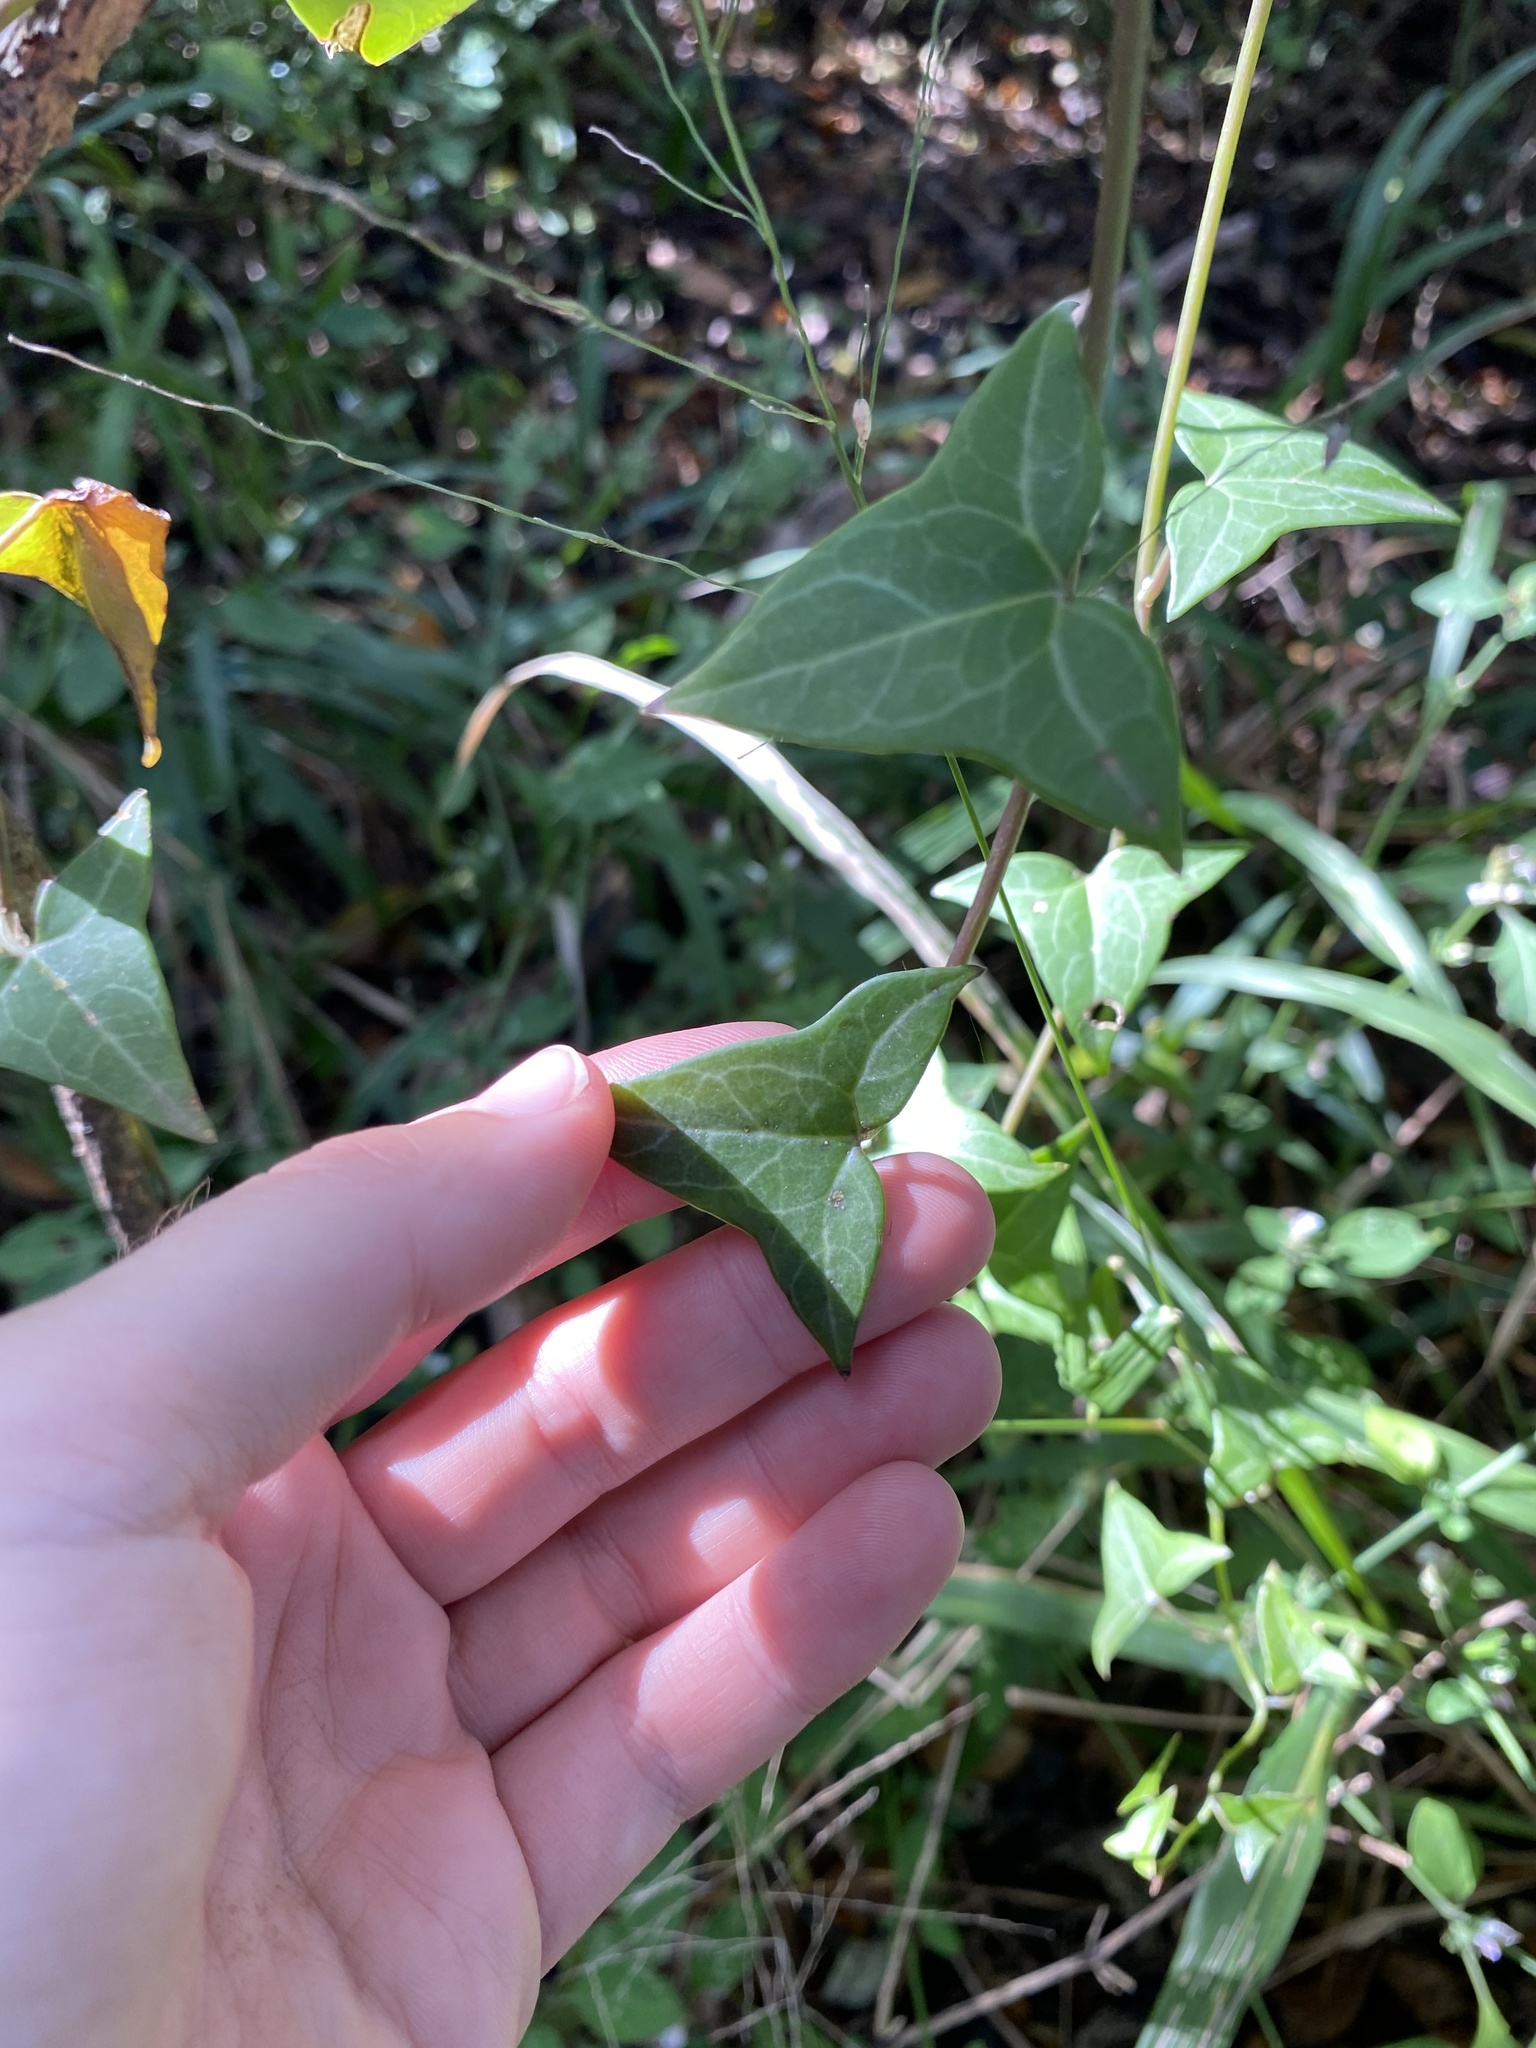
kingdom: Plantae
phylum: Tracheophyta
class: Magnoliopsida
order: Asterales
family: Asteraceae
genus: Senecio
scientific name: Senecio macroglossus
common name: Natal-ivy
